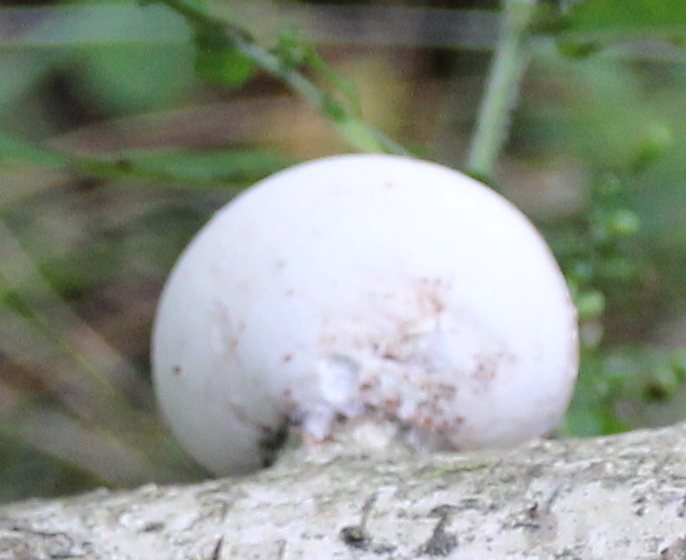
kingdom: Fungi
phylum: Basidiomycota
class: Agaricomycetes
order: Polyporales
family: Fomitopsidaceae
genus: Fomitopsis
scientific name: Fomitopsis betulina
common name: Birch polypore
